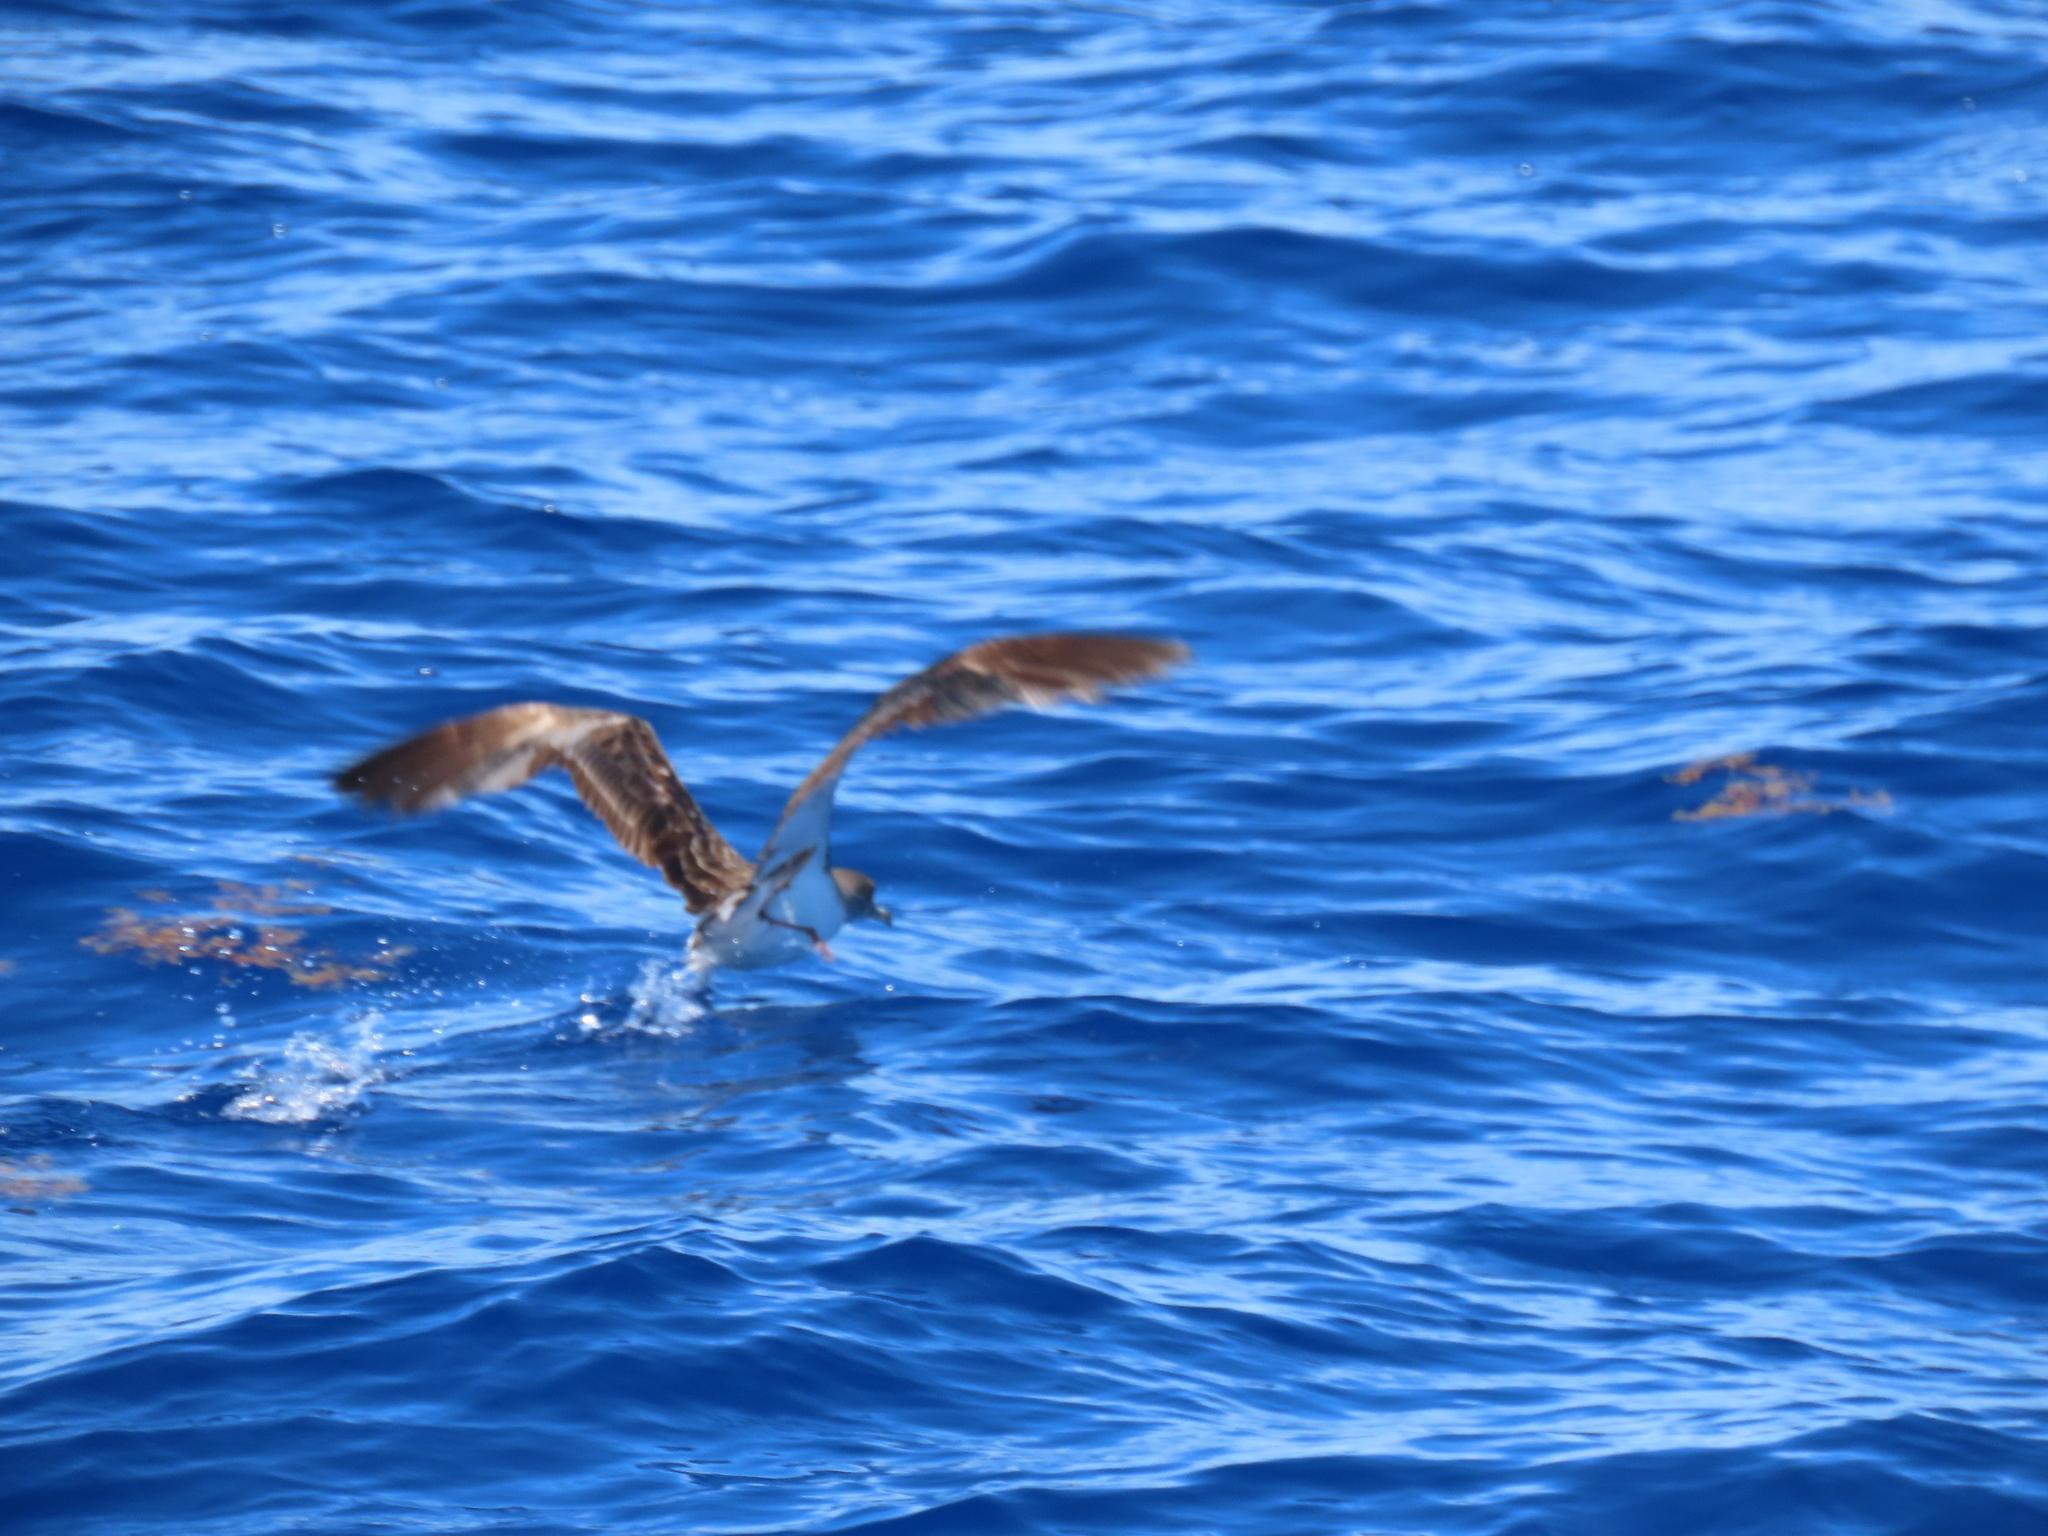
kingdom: Animalia
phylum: Chordata
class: Aves
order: Procellariiformes
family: Procellariidae
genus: Calonectris
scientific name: Calonectris diomedea
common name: Cory's shearwater
